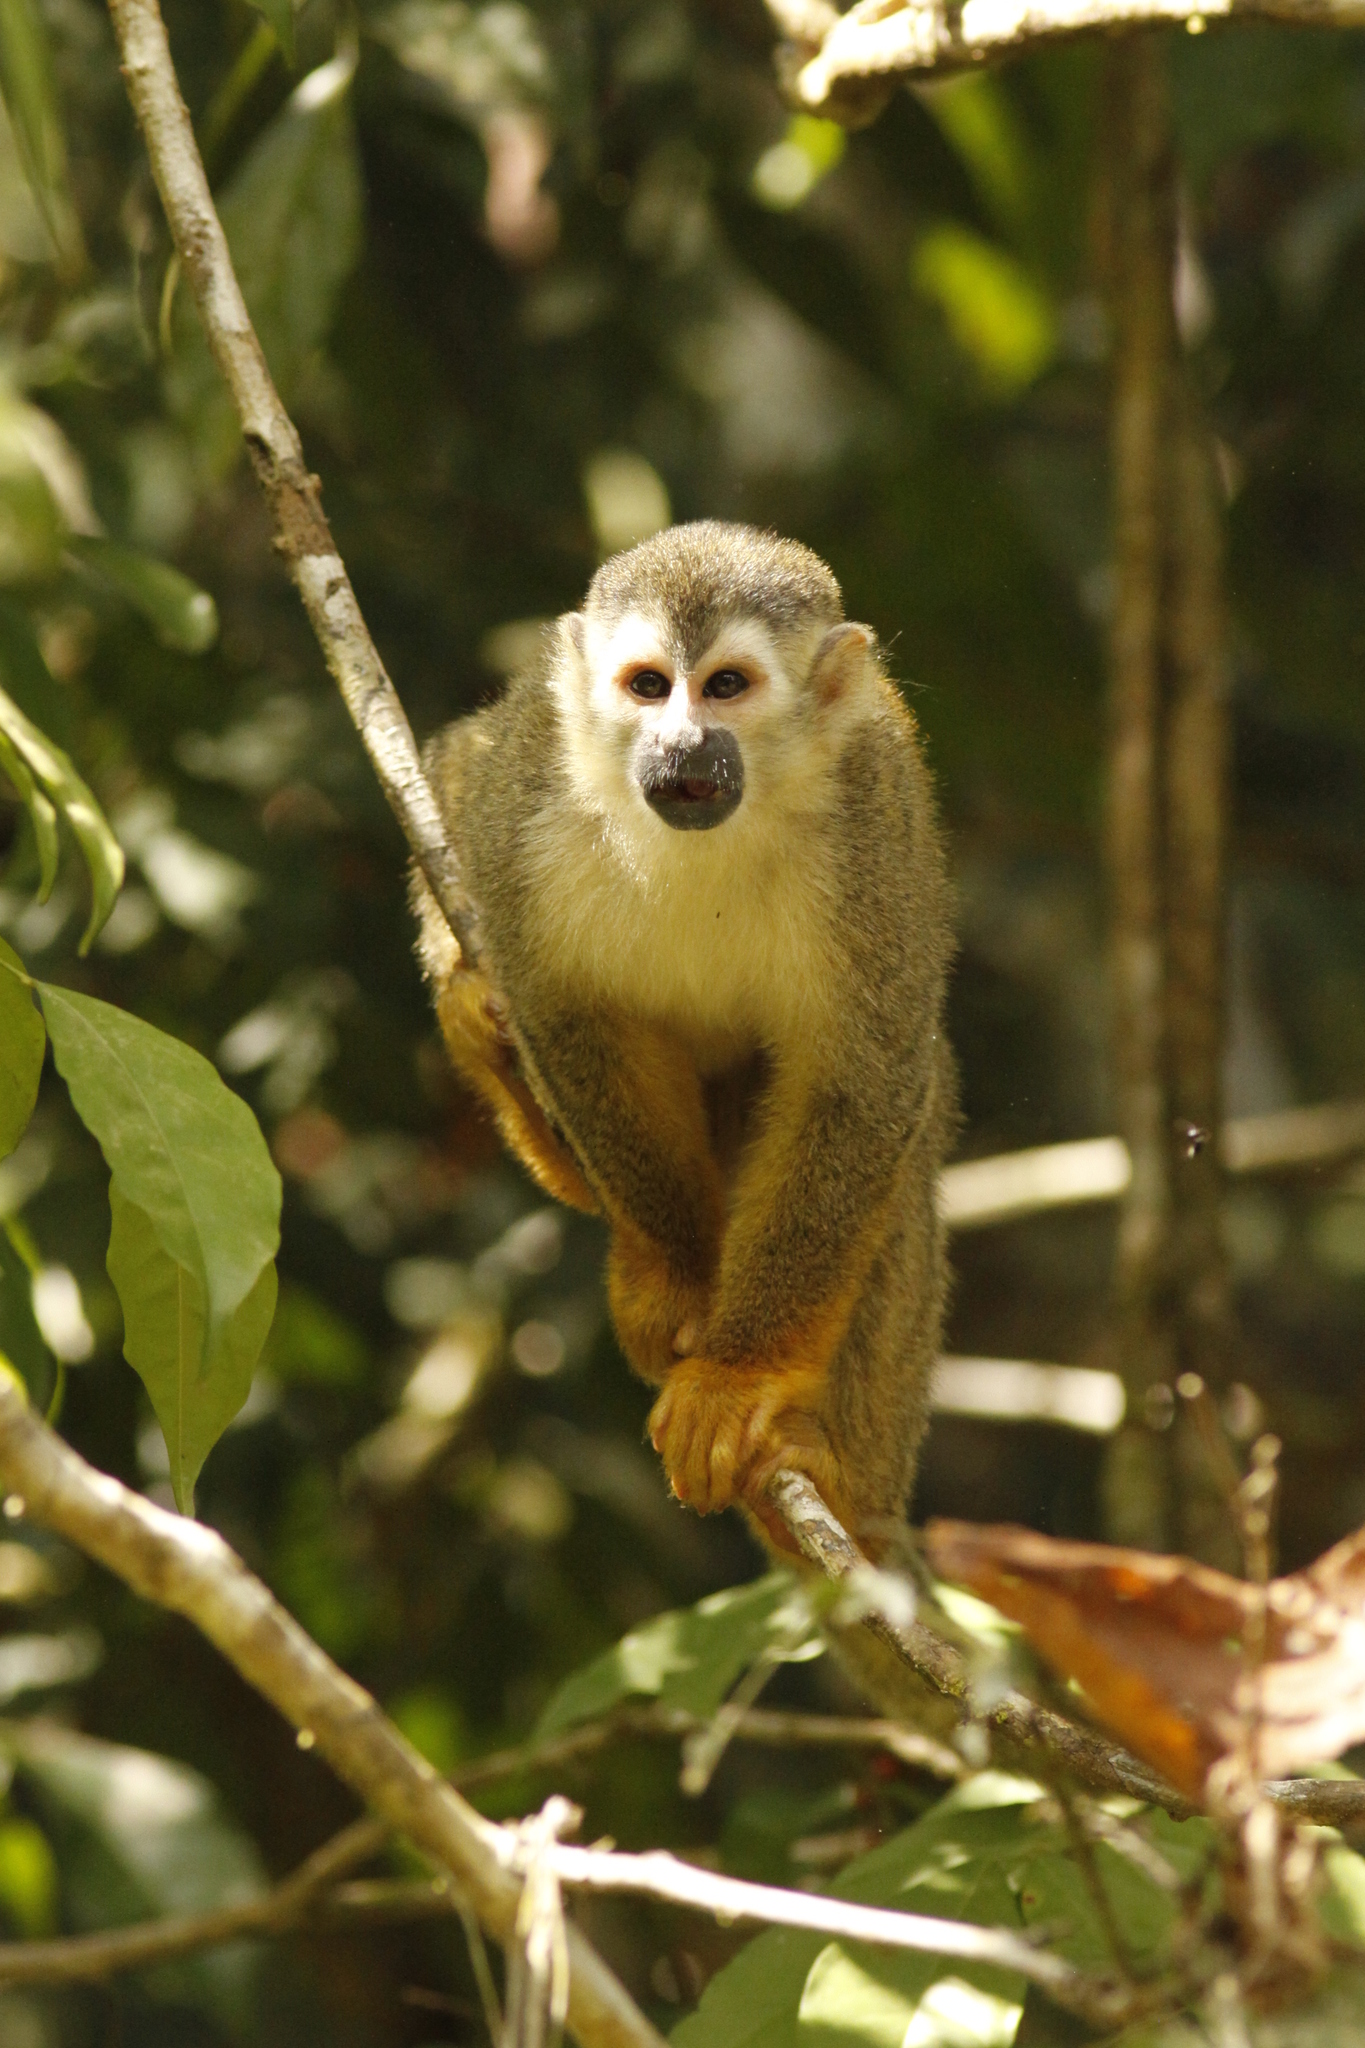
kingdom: Animalia
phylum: Chordata
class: Mammalia
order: Primates
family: Cebidae
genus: Saimiri
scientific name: Saimiri oerstedii
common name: Central american squirrel monkey
